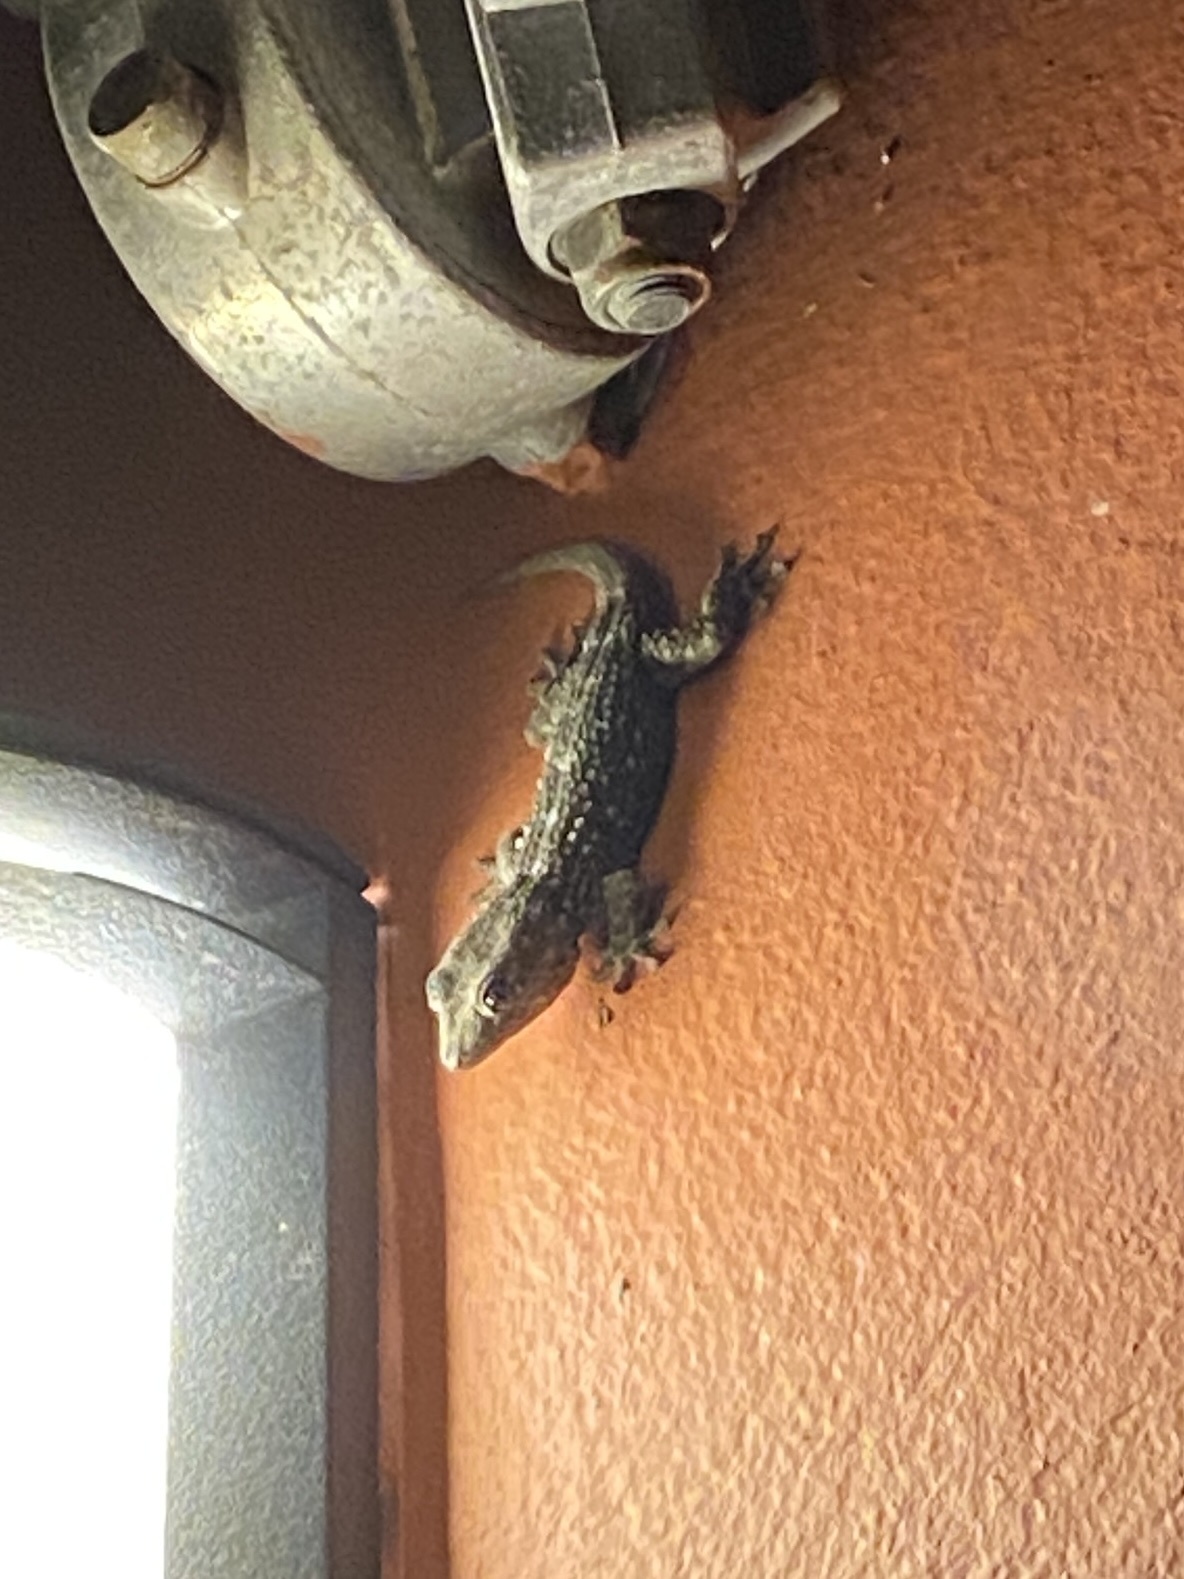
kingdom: Animalia
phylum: Chordata
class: Squamata
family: Phyllodactylidae
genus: Tarentola
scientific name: Tarentola delalandii
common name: Tenerife wall gecko
